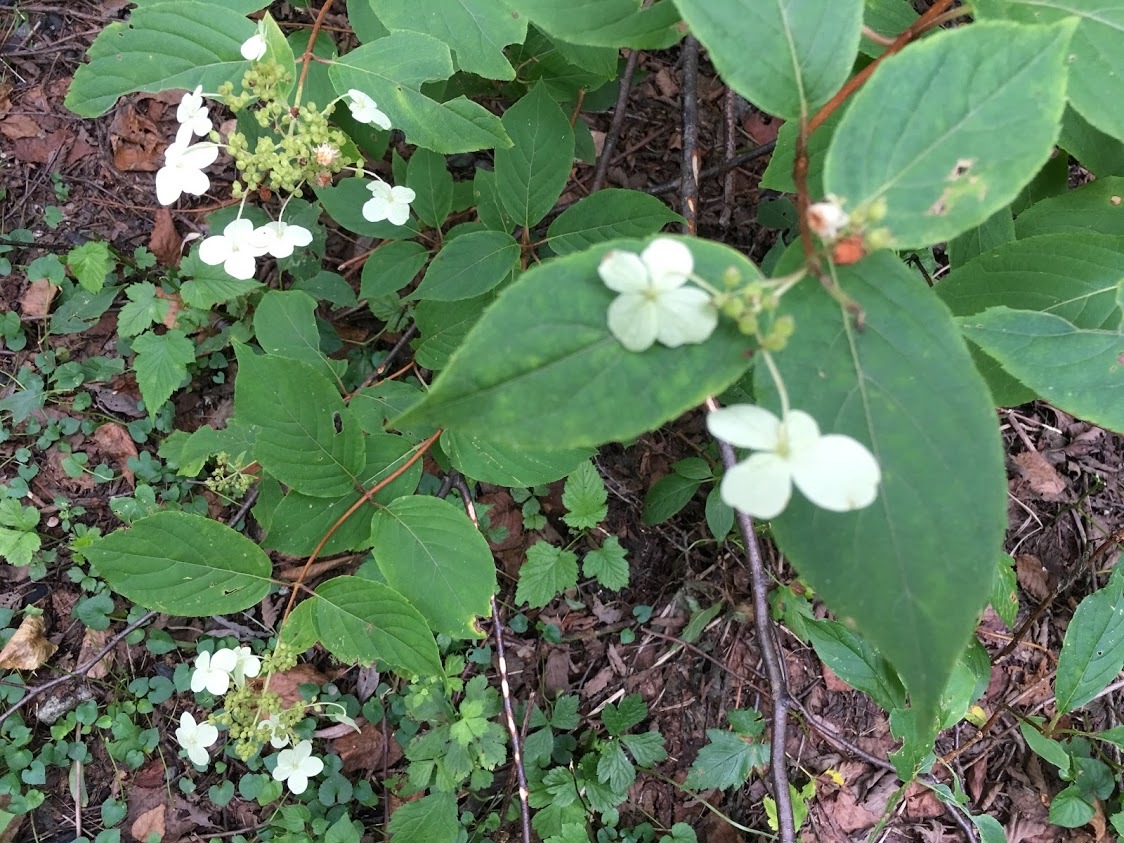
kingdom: Plantae
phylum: Tracheophyta
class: Magnoliopsida
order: Cornales
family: Hydrangeaceae
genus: Hydrangea
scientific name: Hydrangea paniculata
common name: Panicled hydrangea
